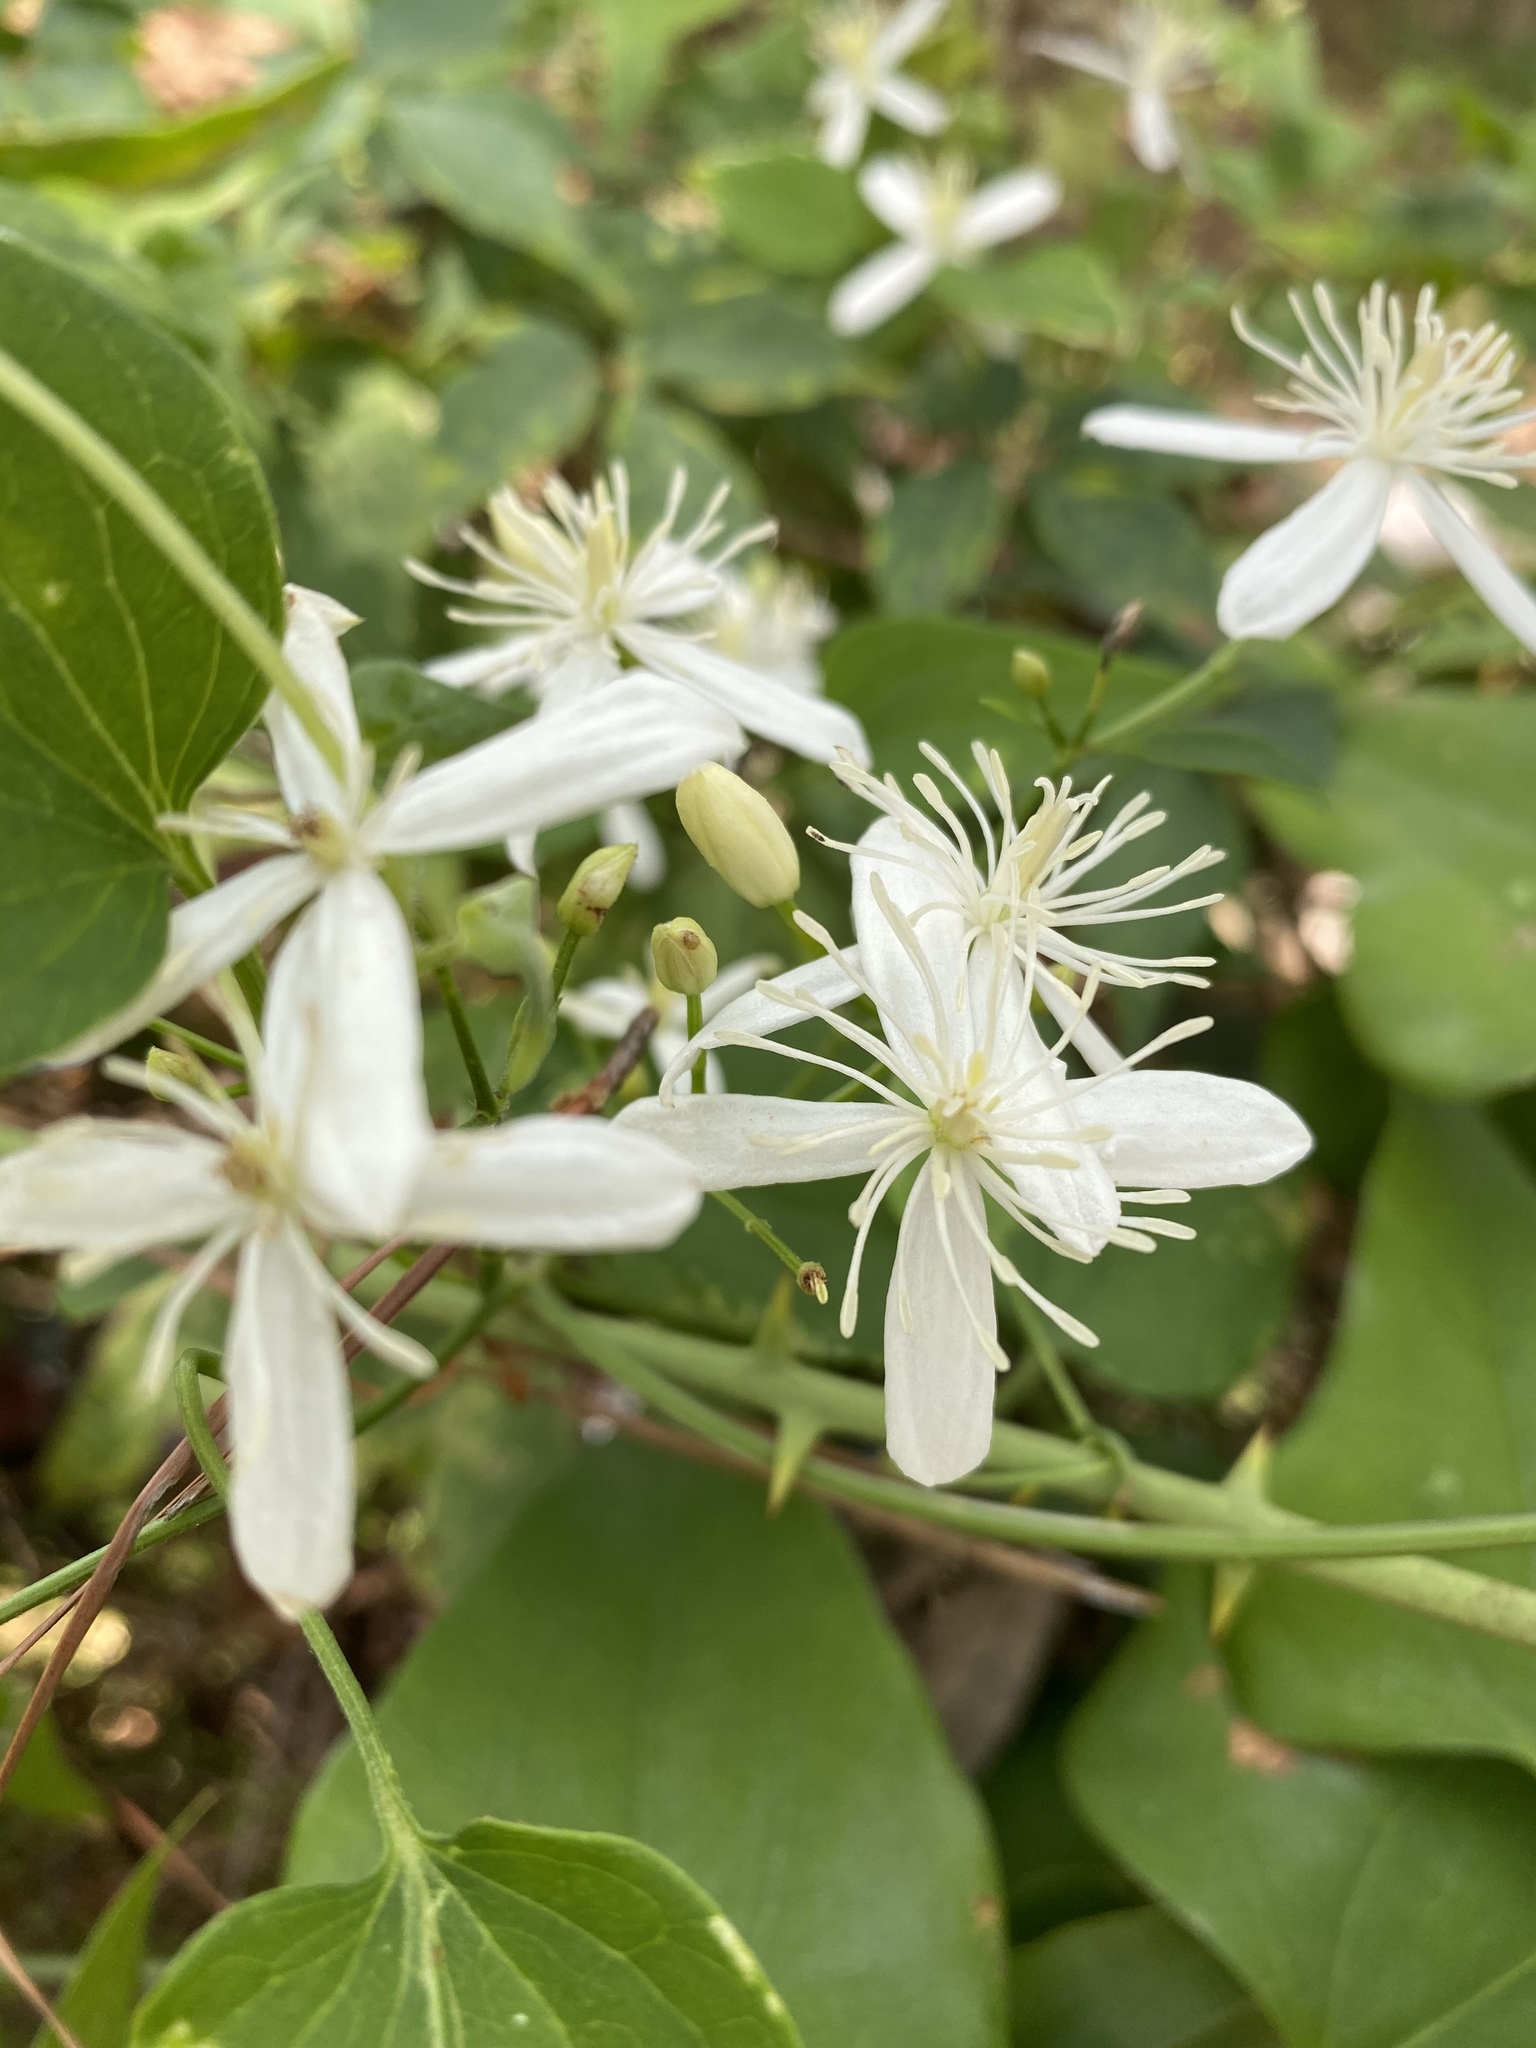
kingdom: Plantae
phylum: Tracheophyta
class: Magnoliopsida
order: Ranunculales
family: Ranunculaceae
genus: Clematis
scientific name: Clematis terniflora
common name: Sweet autumn clematis
